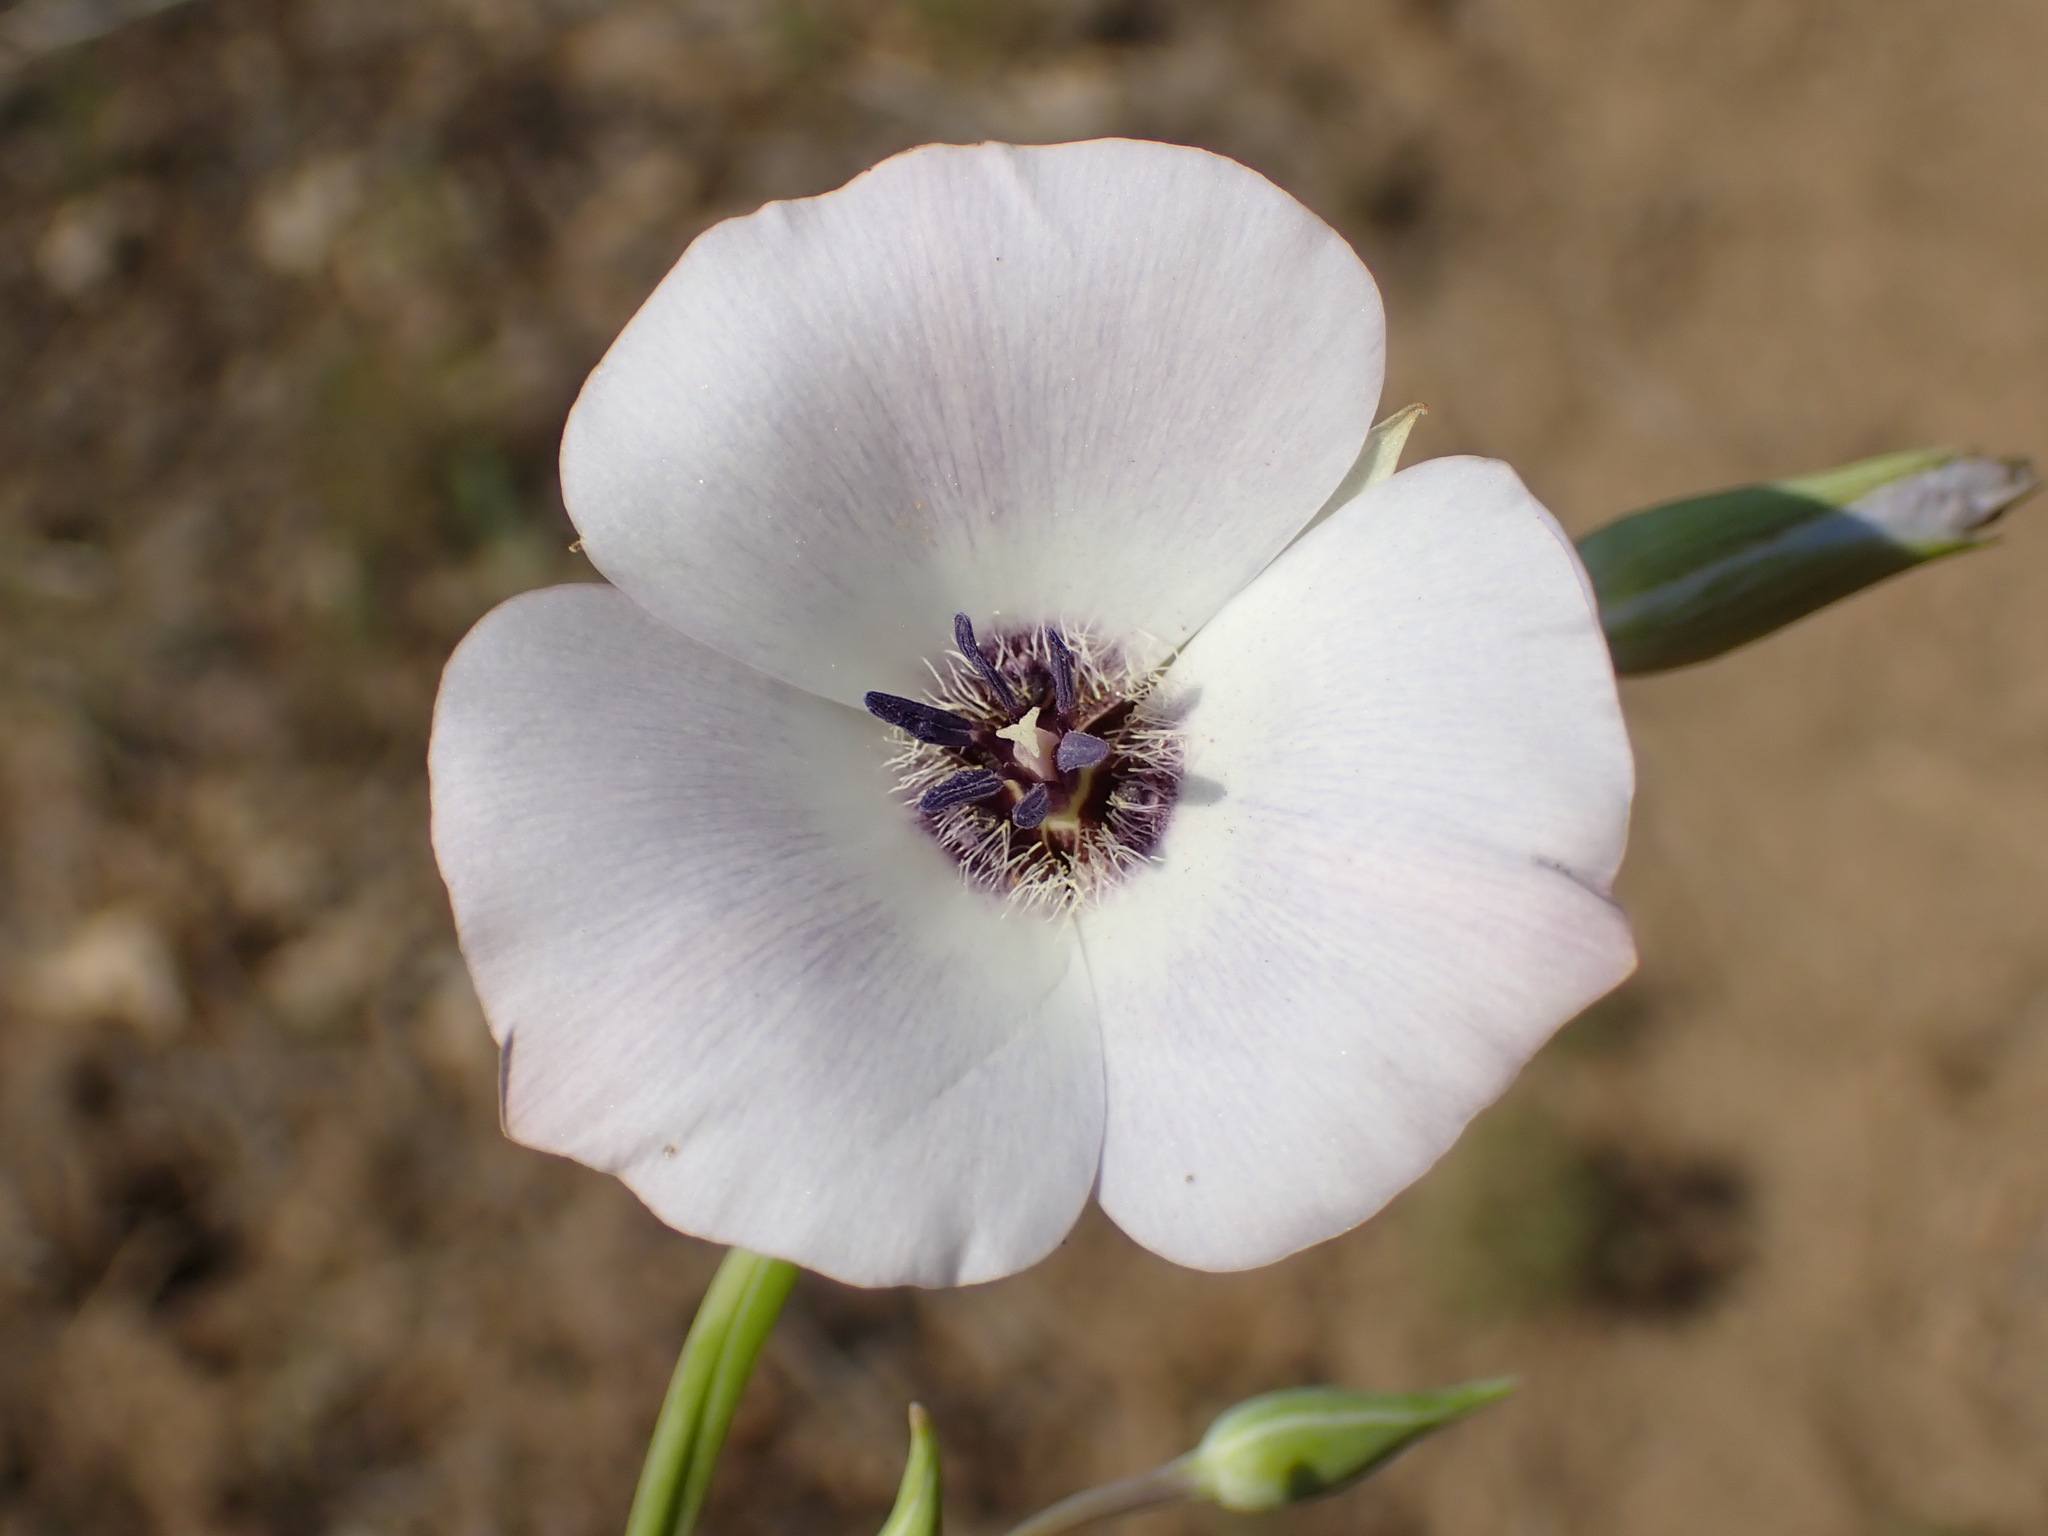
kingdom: Plantae
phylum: Tracheophyta
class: Liliopsida
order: Liliales
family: Liliaceae
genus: Calochortus
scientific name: Calochortus invenustus
